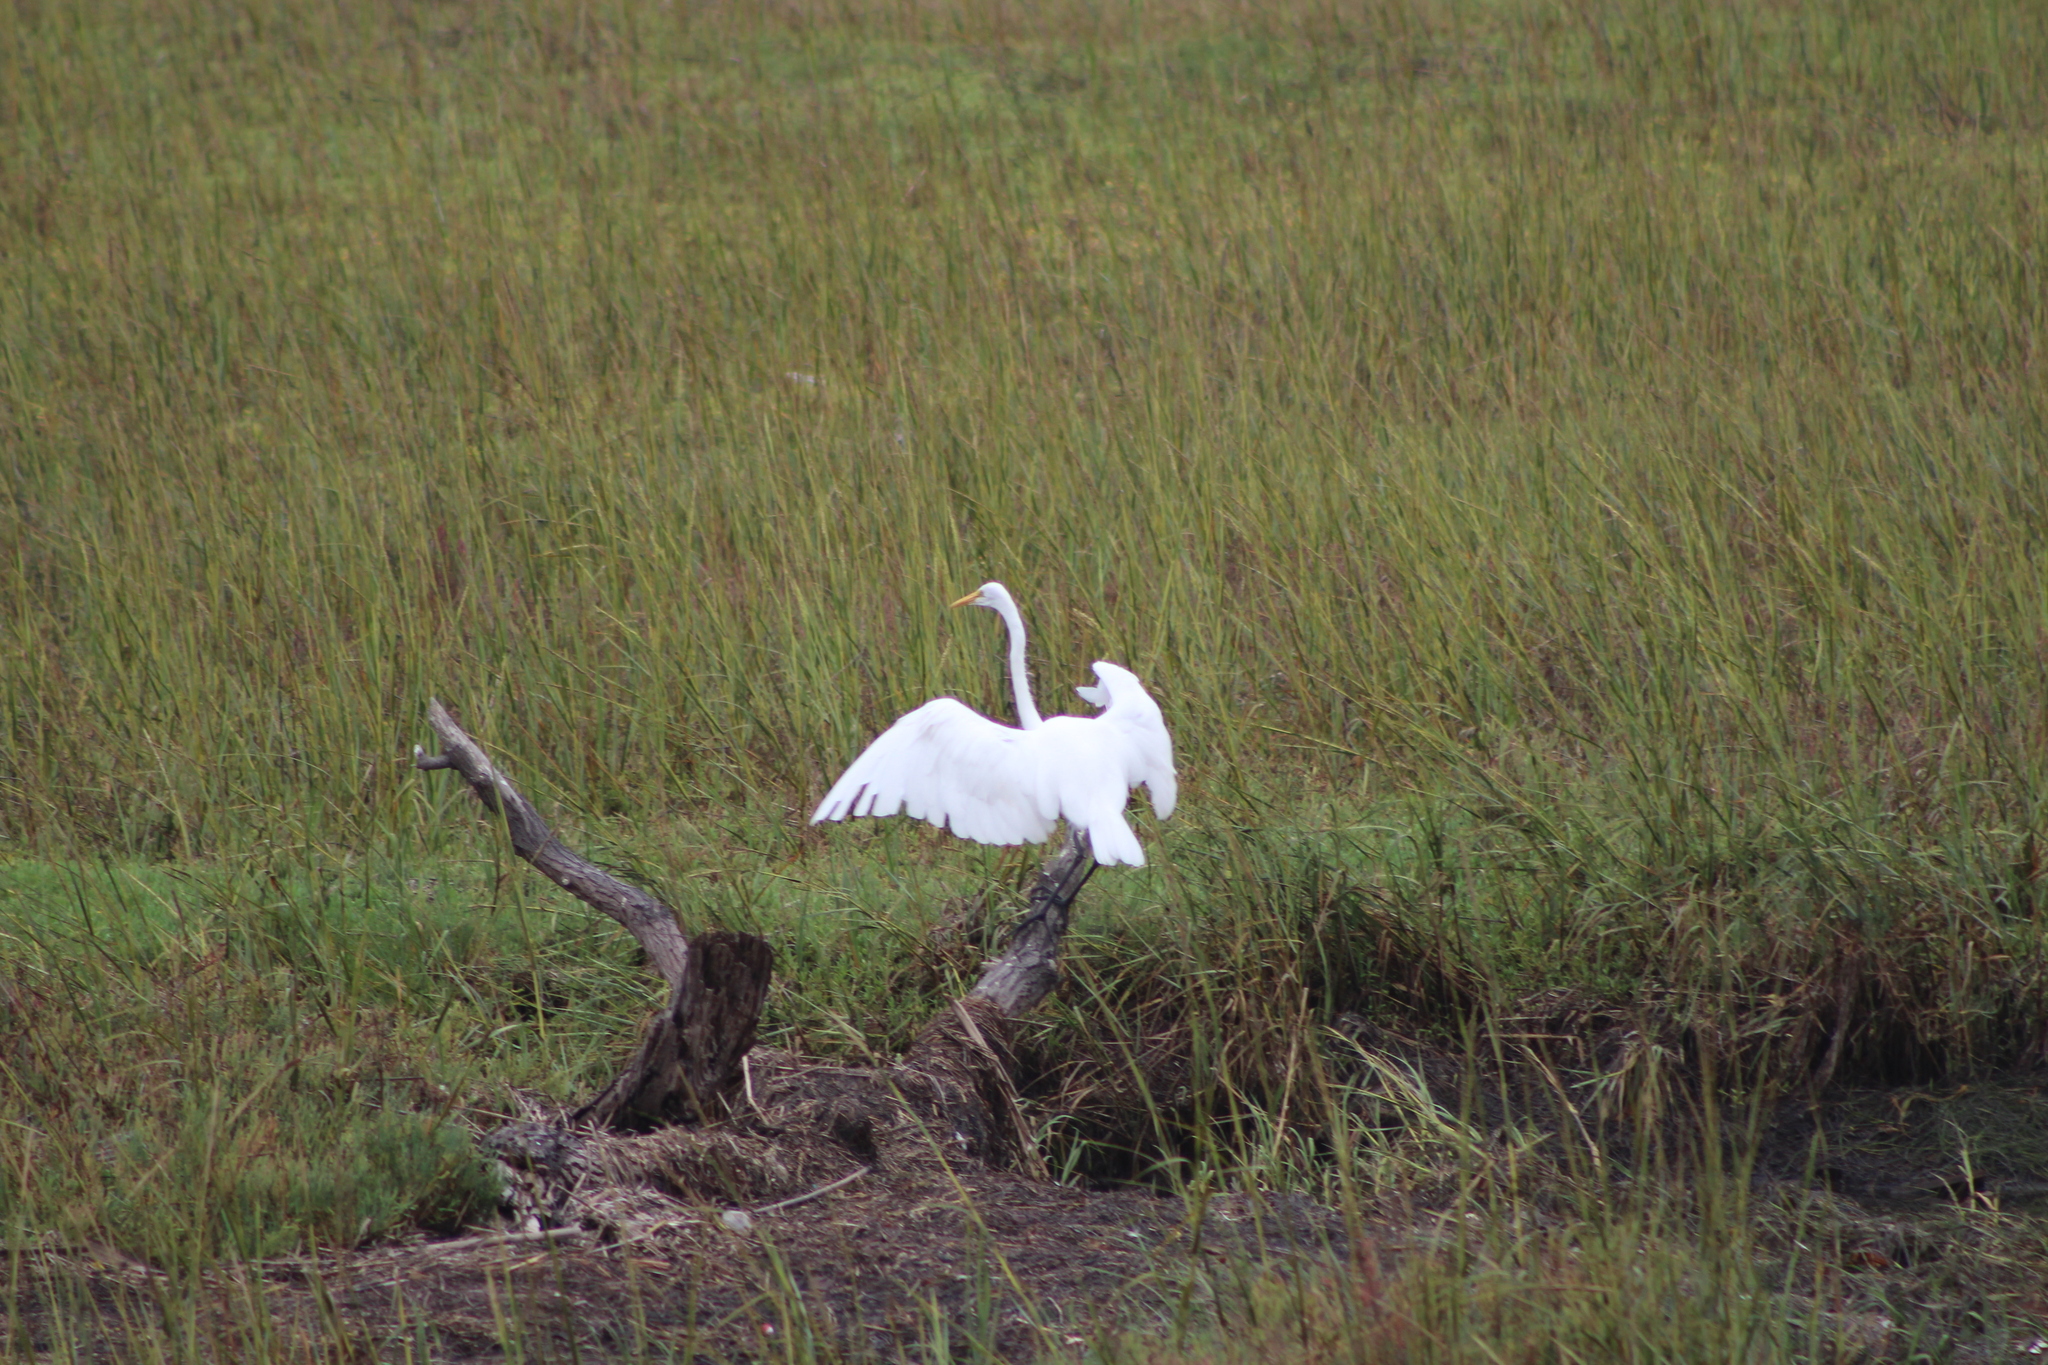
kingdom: Animalia
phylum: Chordata
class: Aves
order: Pelecaniformes
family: Ardeidae
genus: Ardea
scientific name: Ardea alba
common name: Great egret
